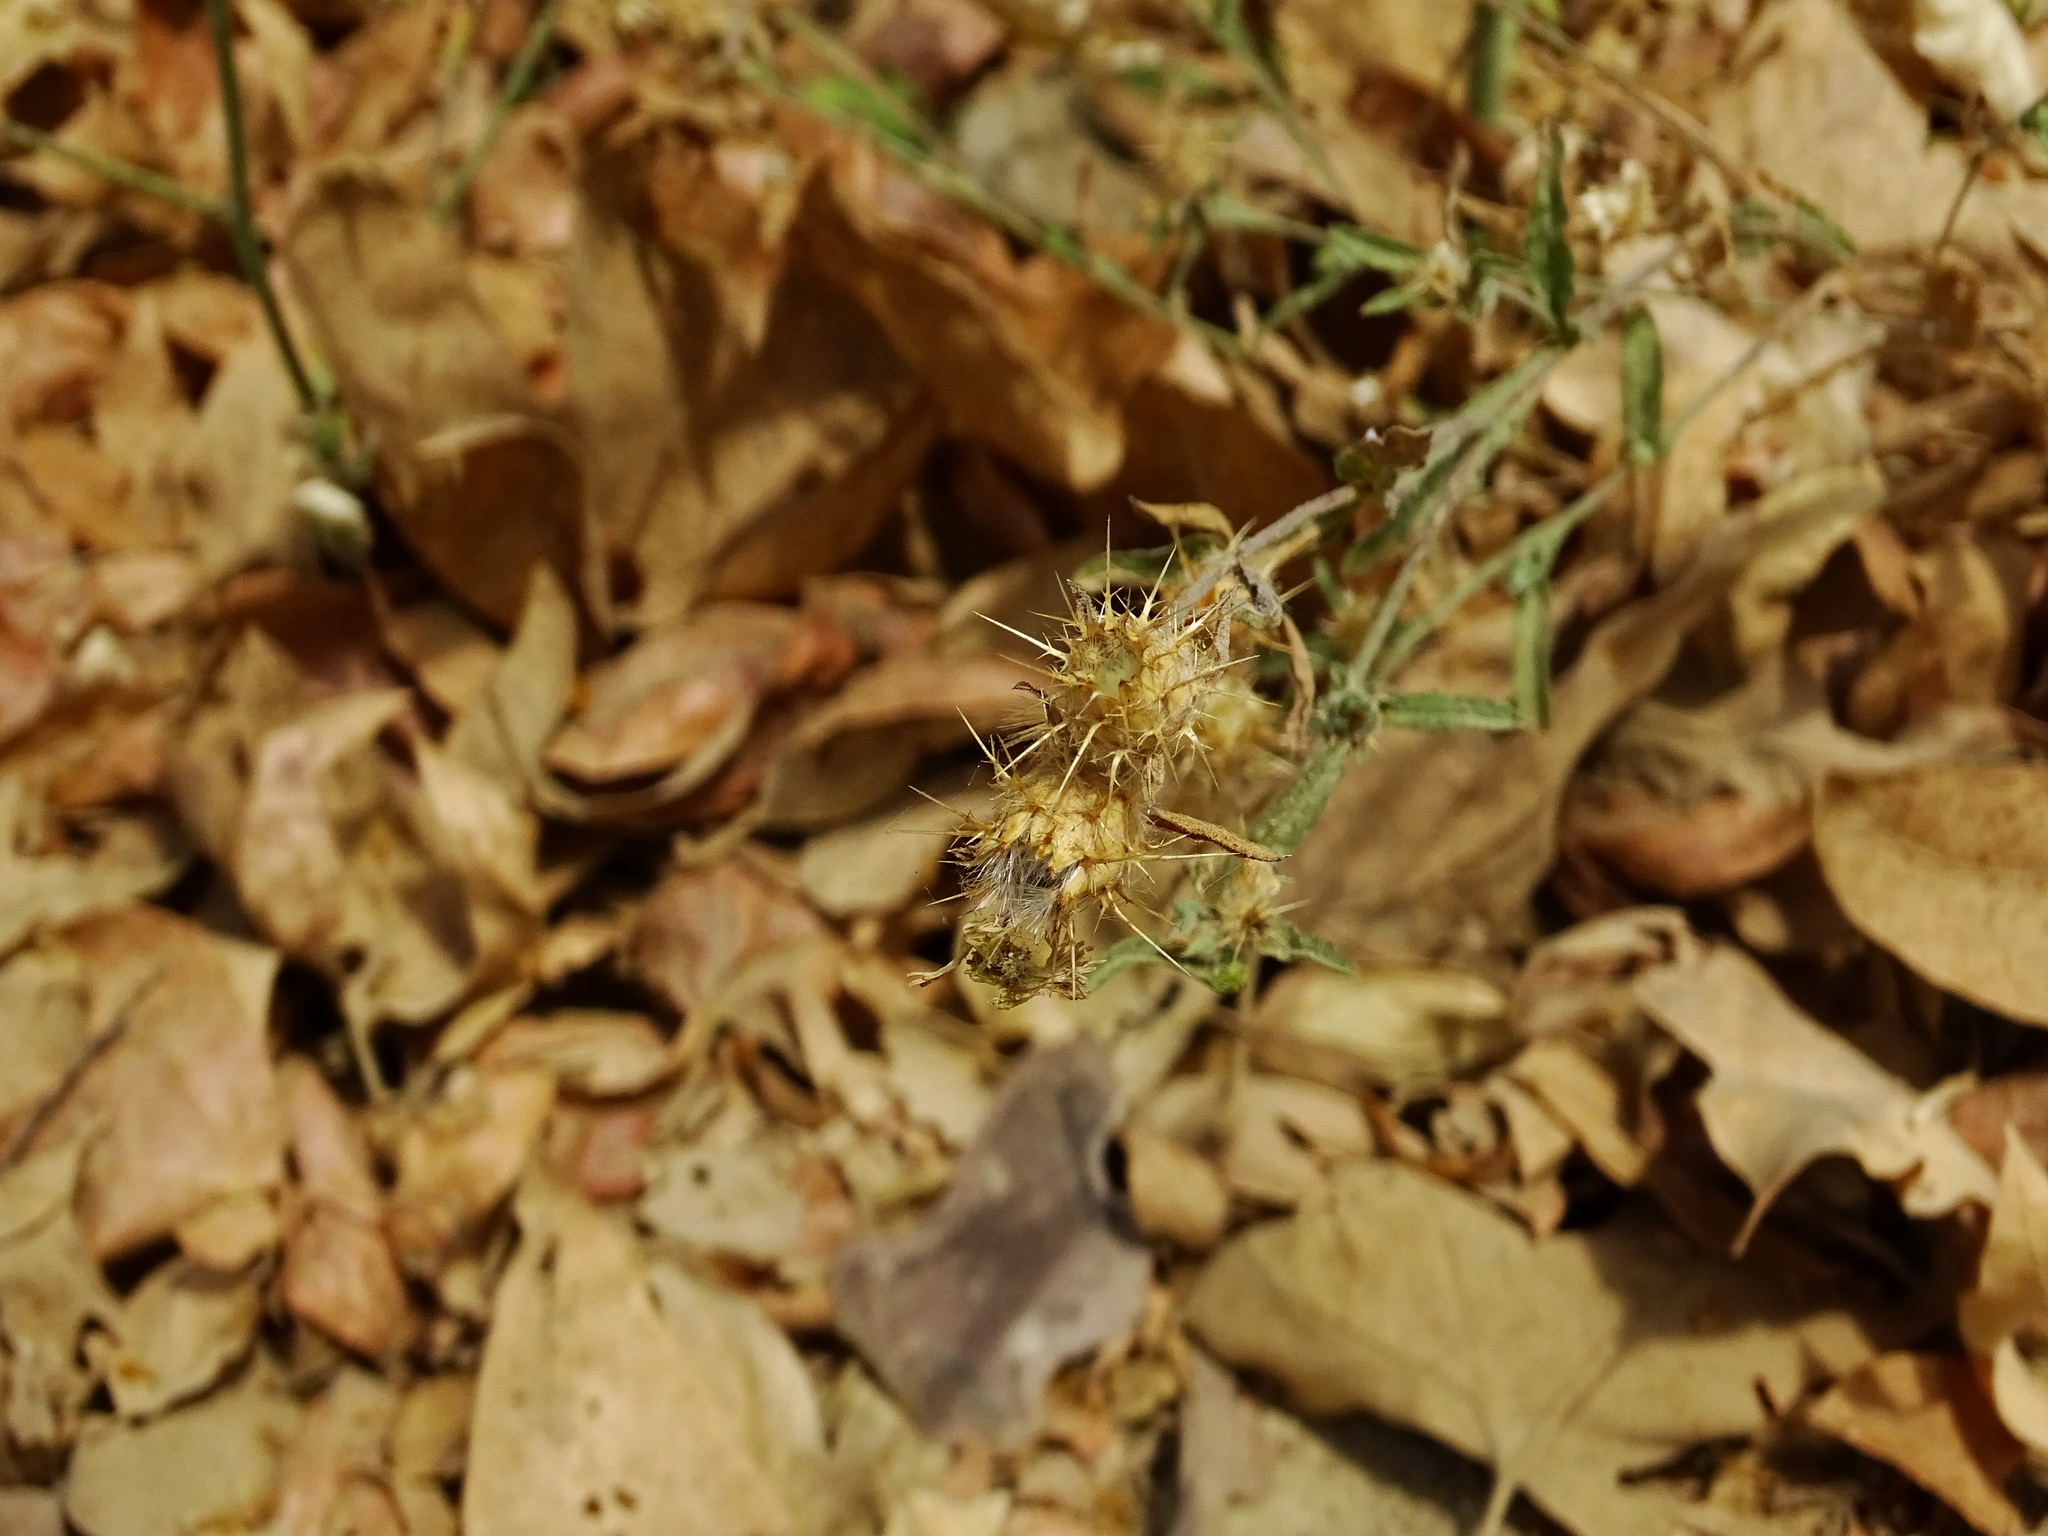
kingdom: Plantae
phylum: Tracheophyta
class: Magnoliopsida
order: Asterales
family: Asteraceae
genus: Centaurea
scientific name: Centaurea melitensis
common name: Maltese star-thistle
